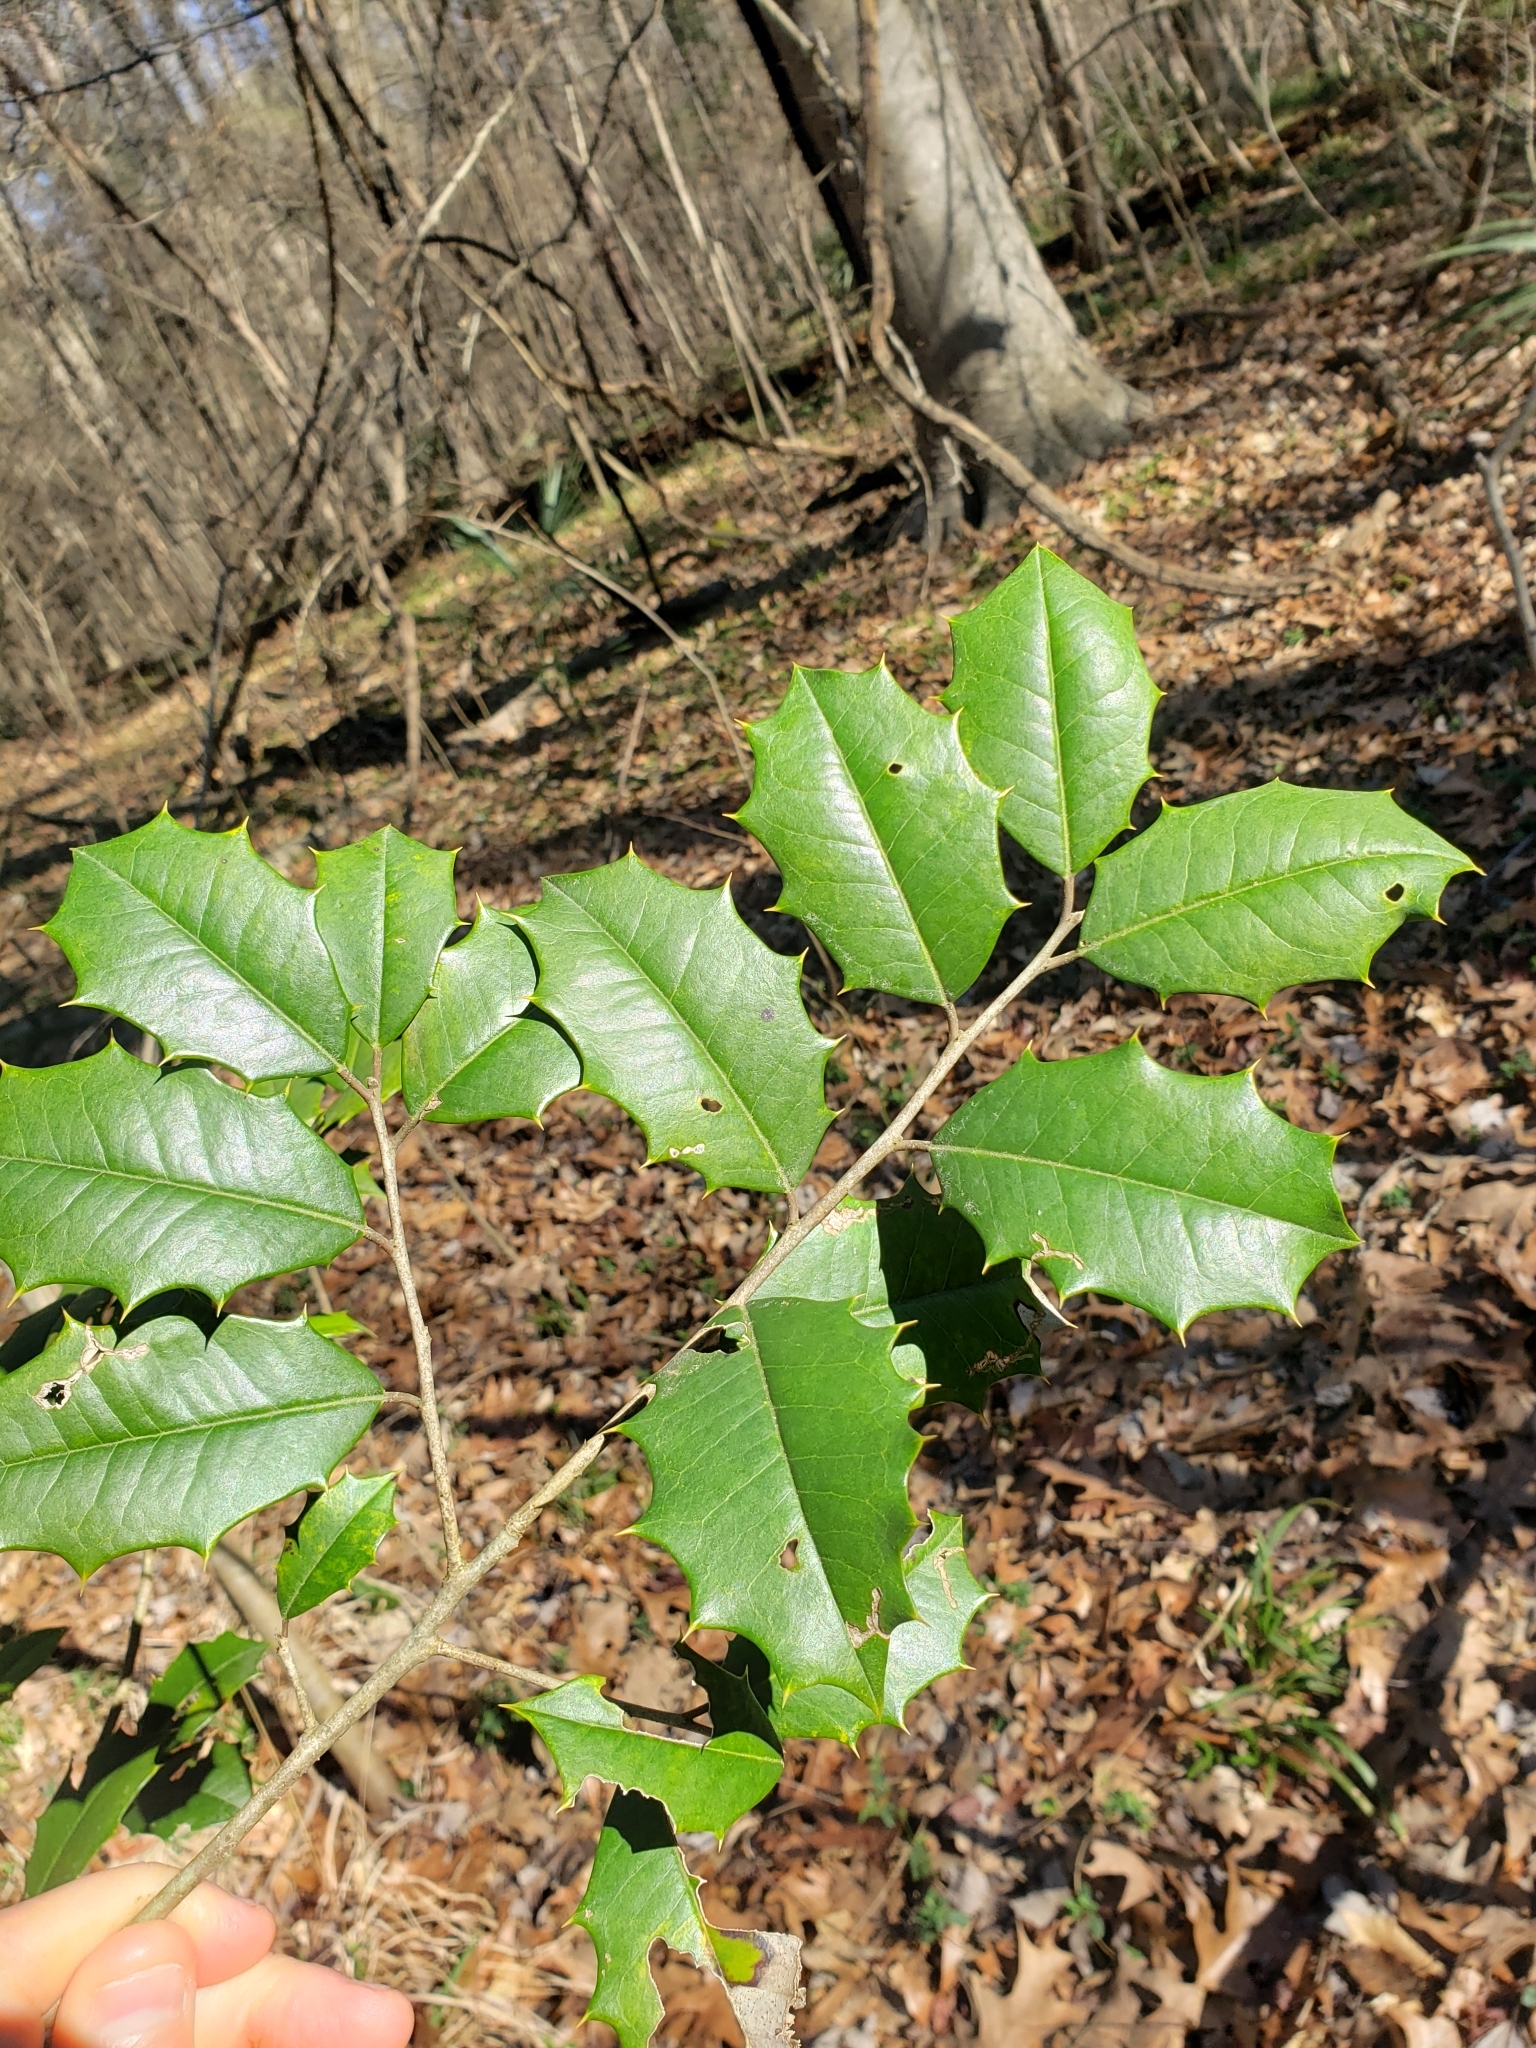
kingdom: Plantae
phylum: Tracheophyta
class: Magnoliopsida
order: Aquifoliales
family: Aquifoliaceae
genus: Ilex
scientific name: Ilex opaca
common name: American holly
